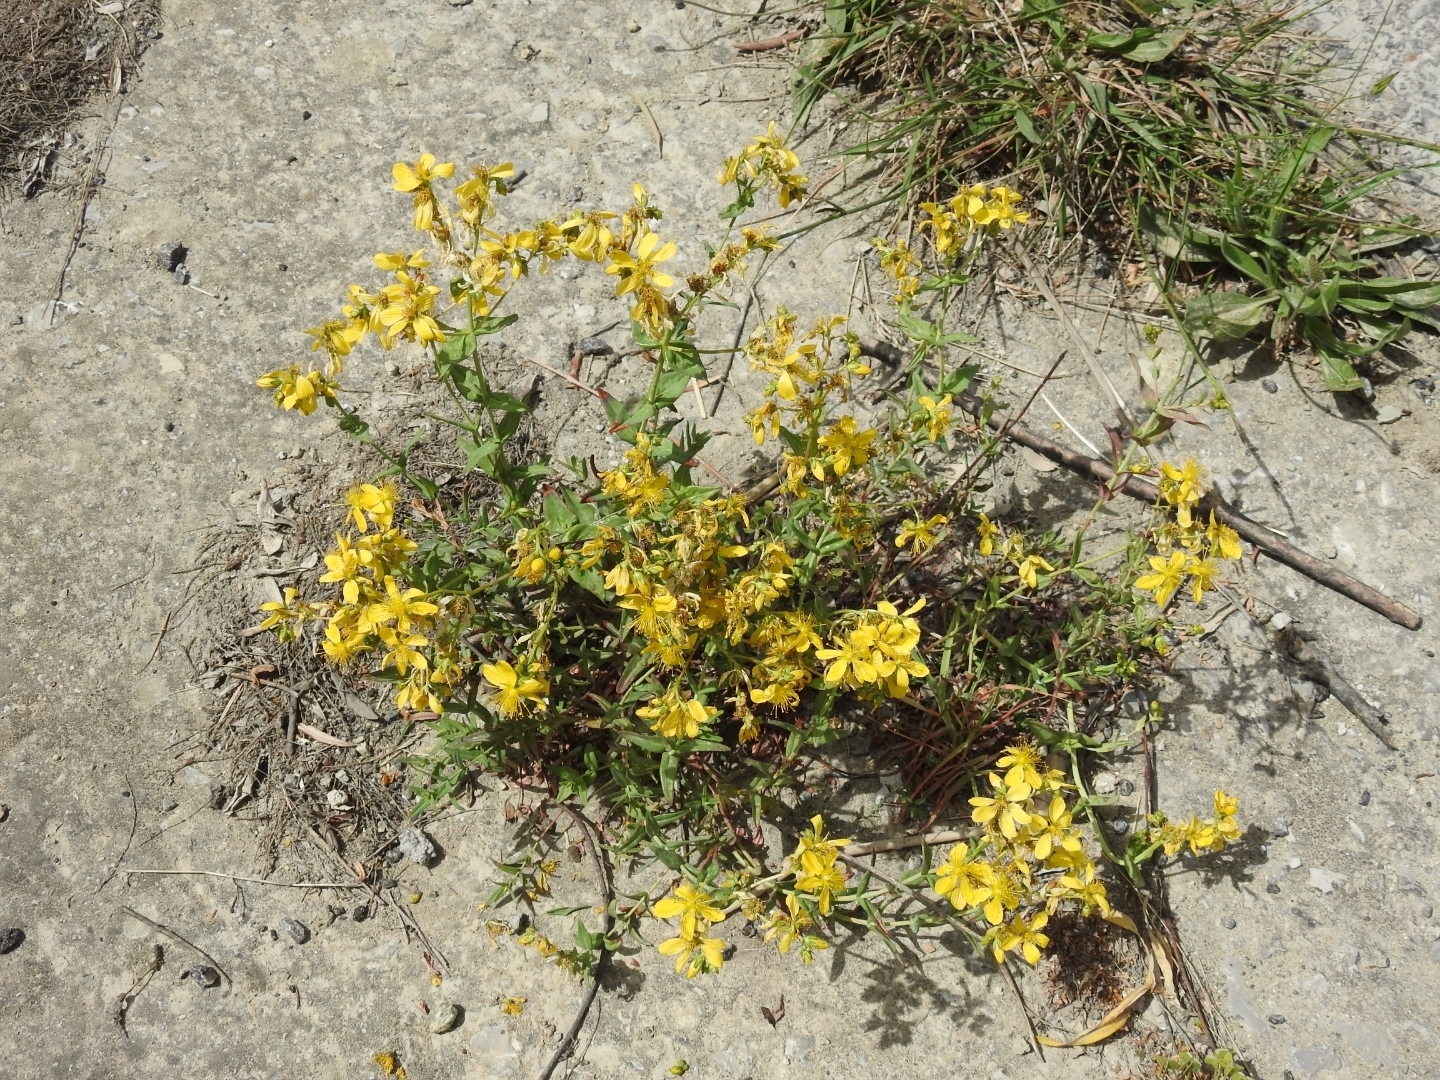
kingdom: Plantae
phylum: Tracheophyta
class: Magnoliopsida
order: Malpighiales
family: Hypericaceae
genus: Hypericum
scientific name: Hypericum perfoliatum
